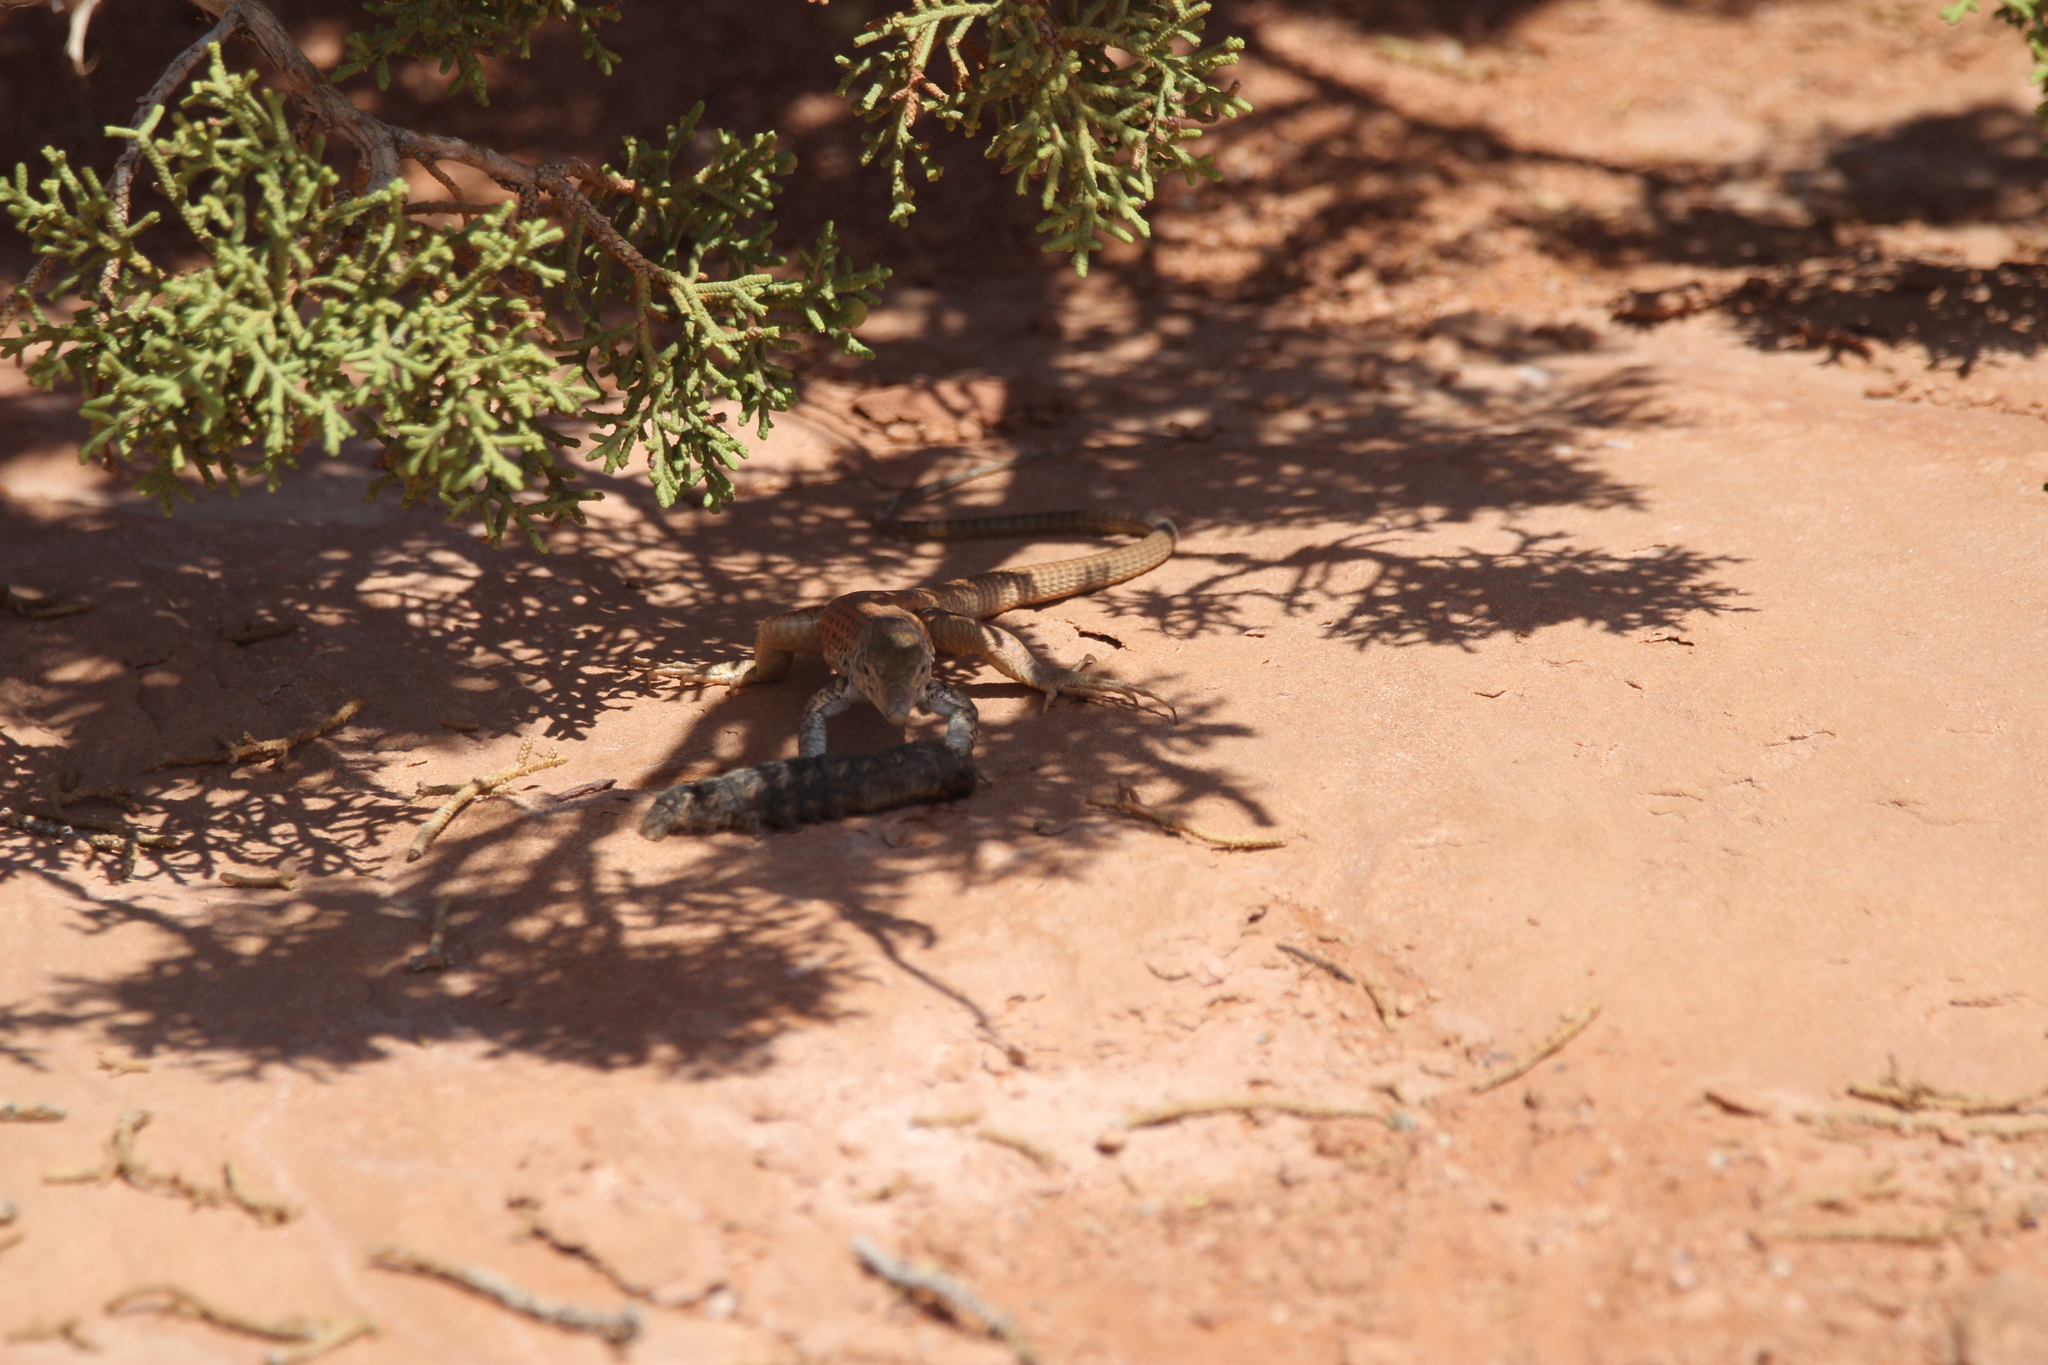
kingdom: Animalia
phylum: Chordata
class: Squamata
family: Teiidae
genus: Aspidoscelis
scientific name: Aspidoscelis tigris
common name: Tiger whiptail
